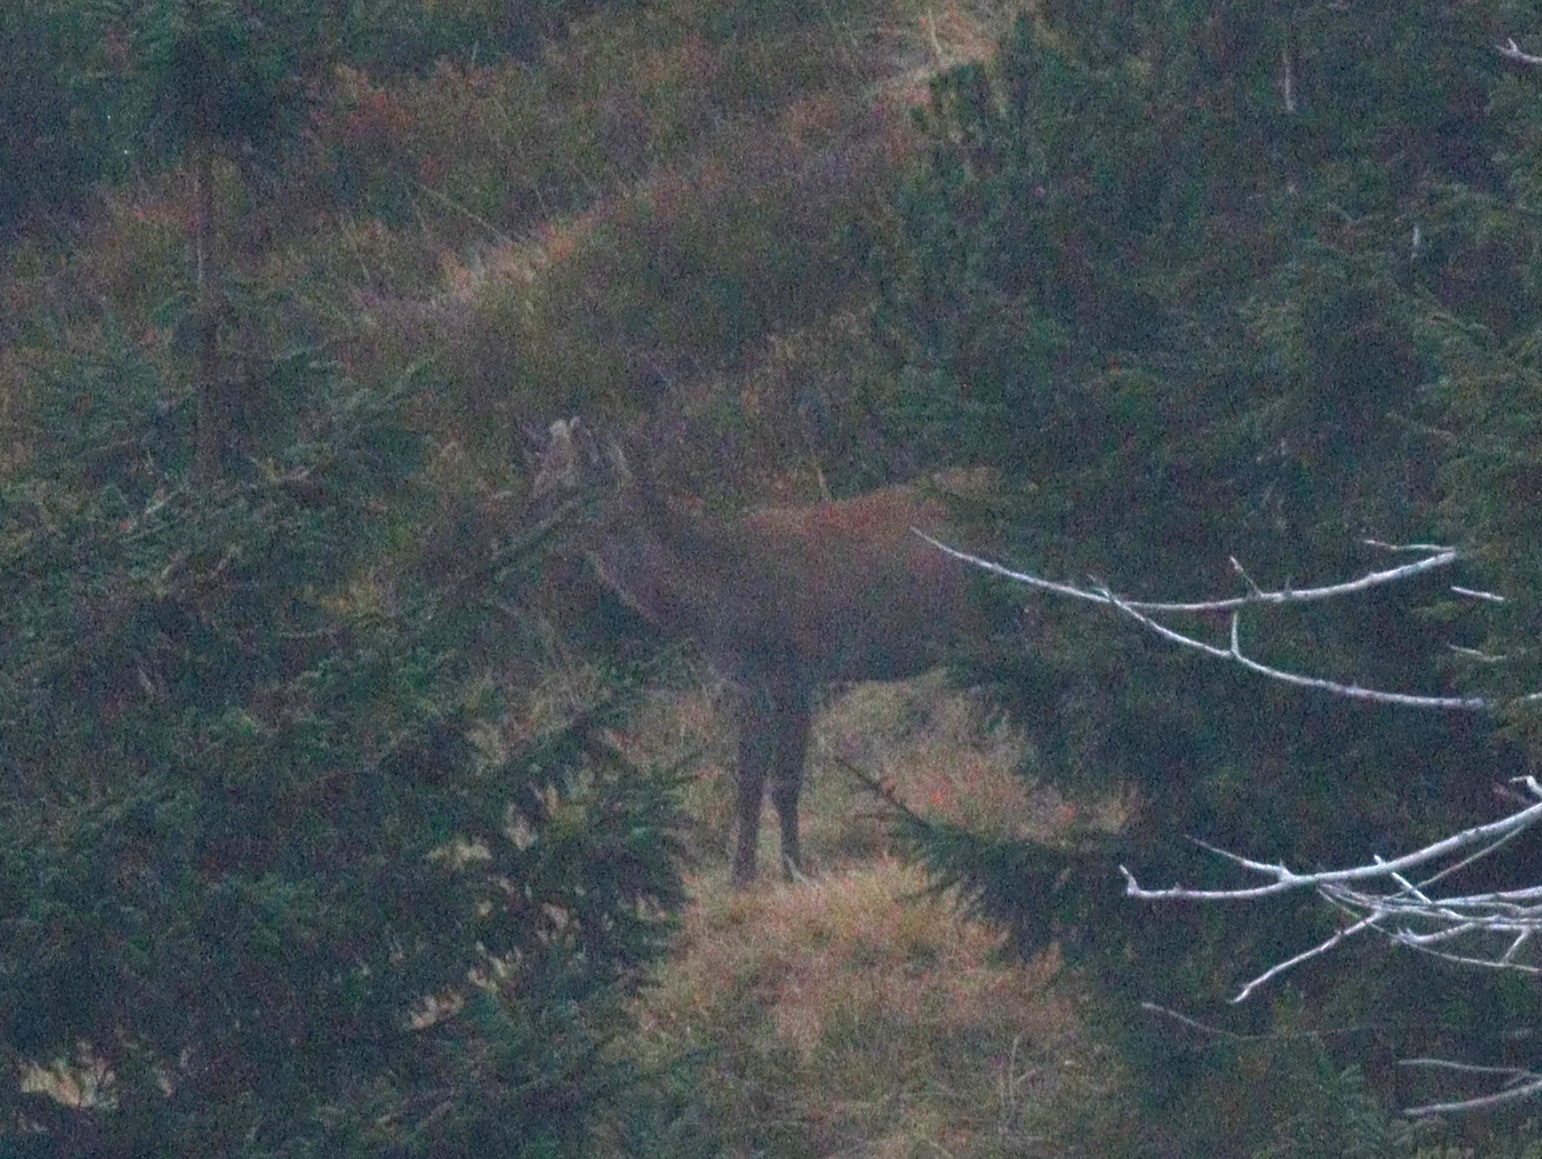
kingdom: Animalia
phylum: Chordata
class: Mammalia
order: Artiodactyla
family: Cervidae
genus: Cervus
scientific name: Cervus elaphus
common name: Red deer
